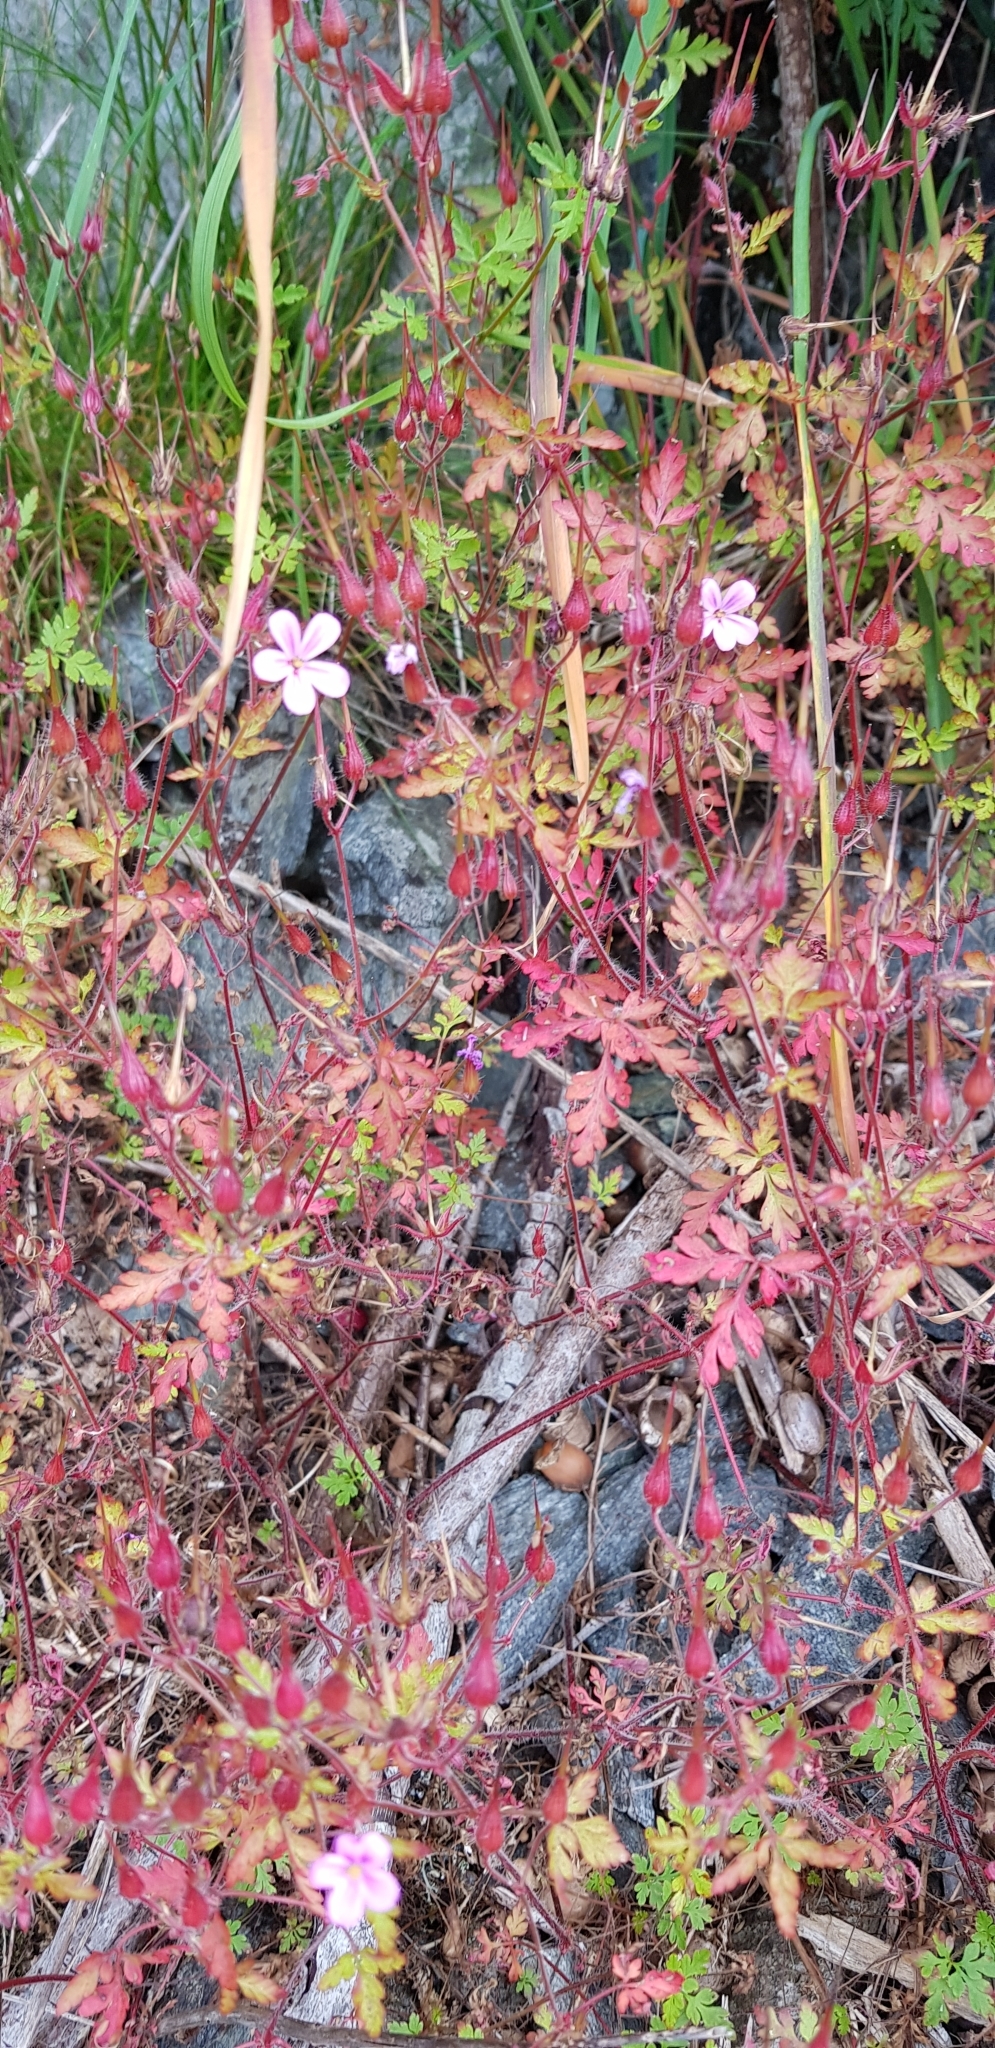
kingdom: Plantae
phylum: Tracheophyta
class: Magnoliopsida
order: Geraniales
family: Geraniaceae
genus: Geranium
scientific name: Geranium robertianum
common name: Herb-robert
